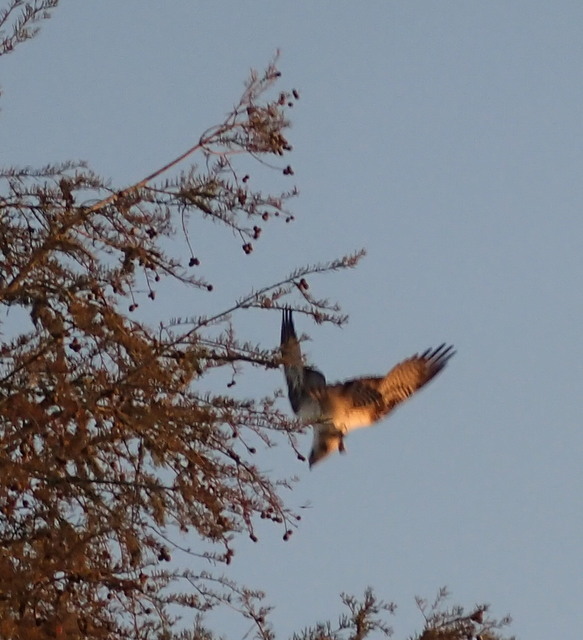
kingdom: Animalia
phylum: Chordata
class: Aves
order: Accipitriformes
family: Pandionidae
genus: Pandion
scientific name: Pandion haliaetus
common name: Osprey
